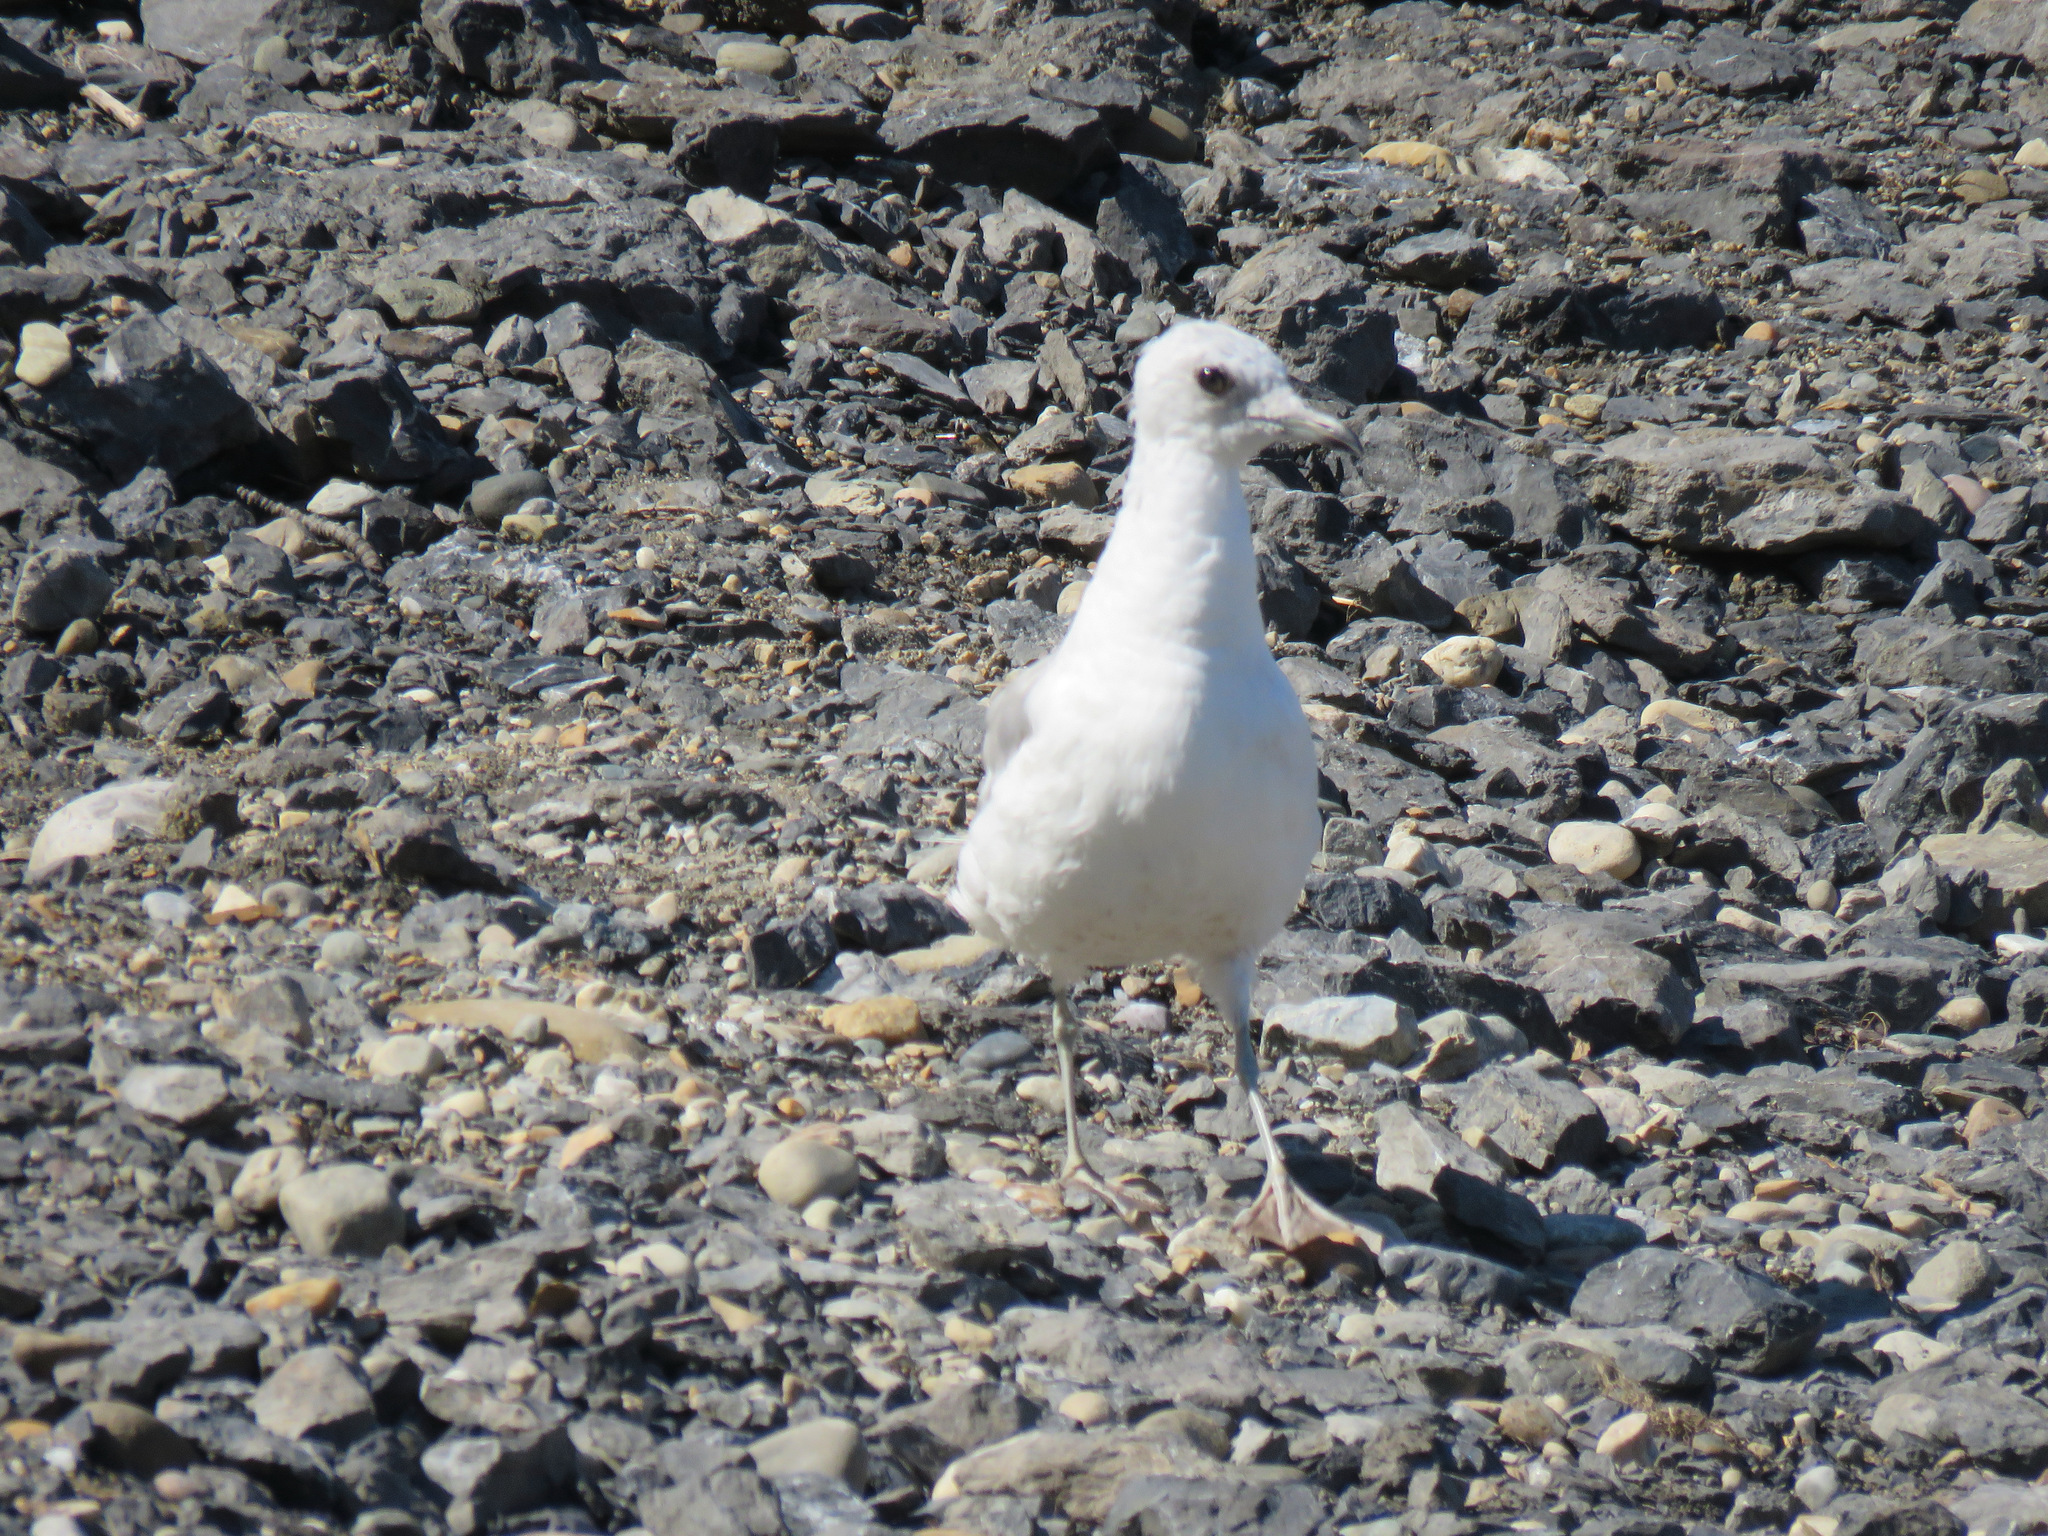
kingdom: Animalia
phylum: Chordata
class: Aves
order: Charadriiformes
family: Laridae
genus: Larus
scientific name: Larus brachyrhynchus
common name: Short-billed gull
